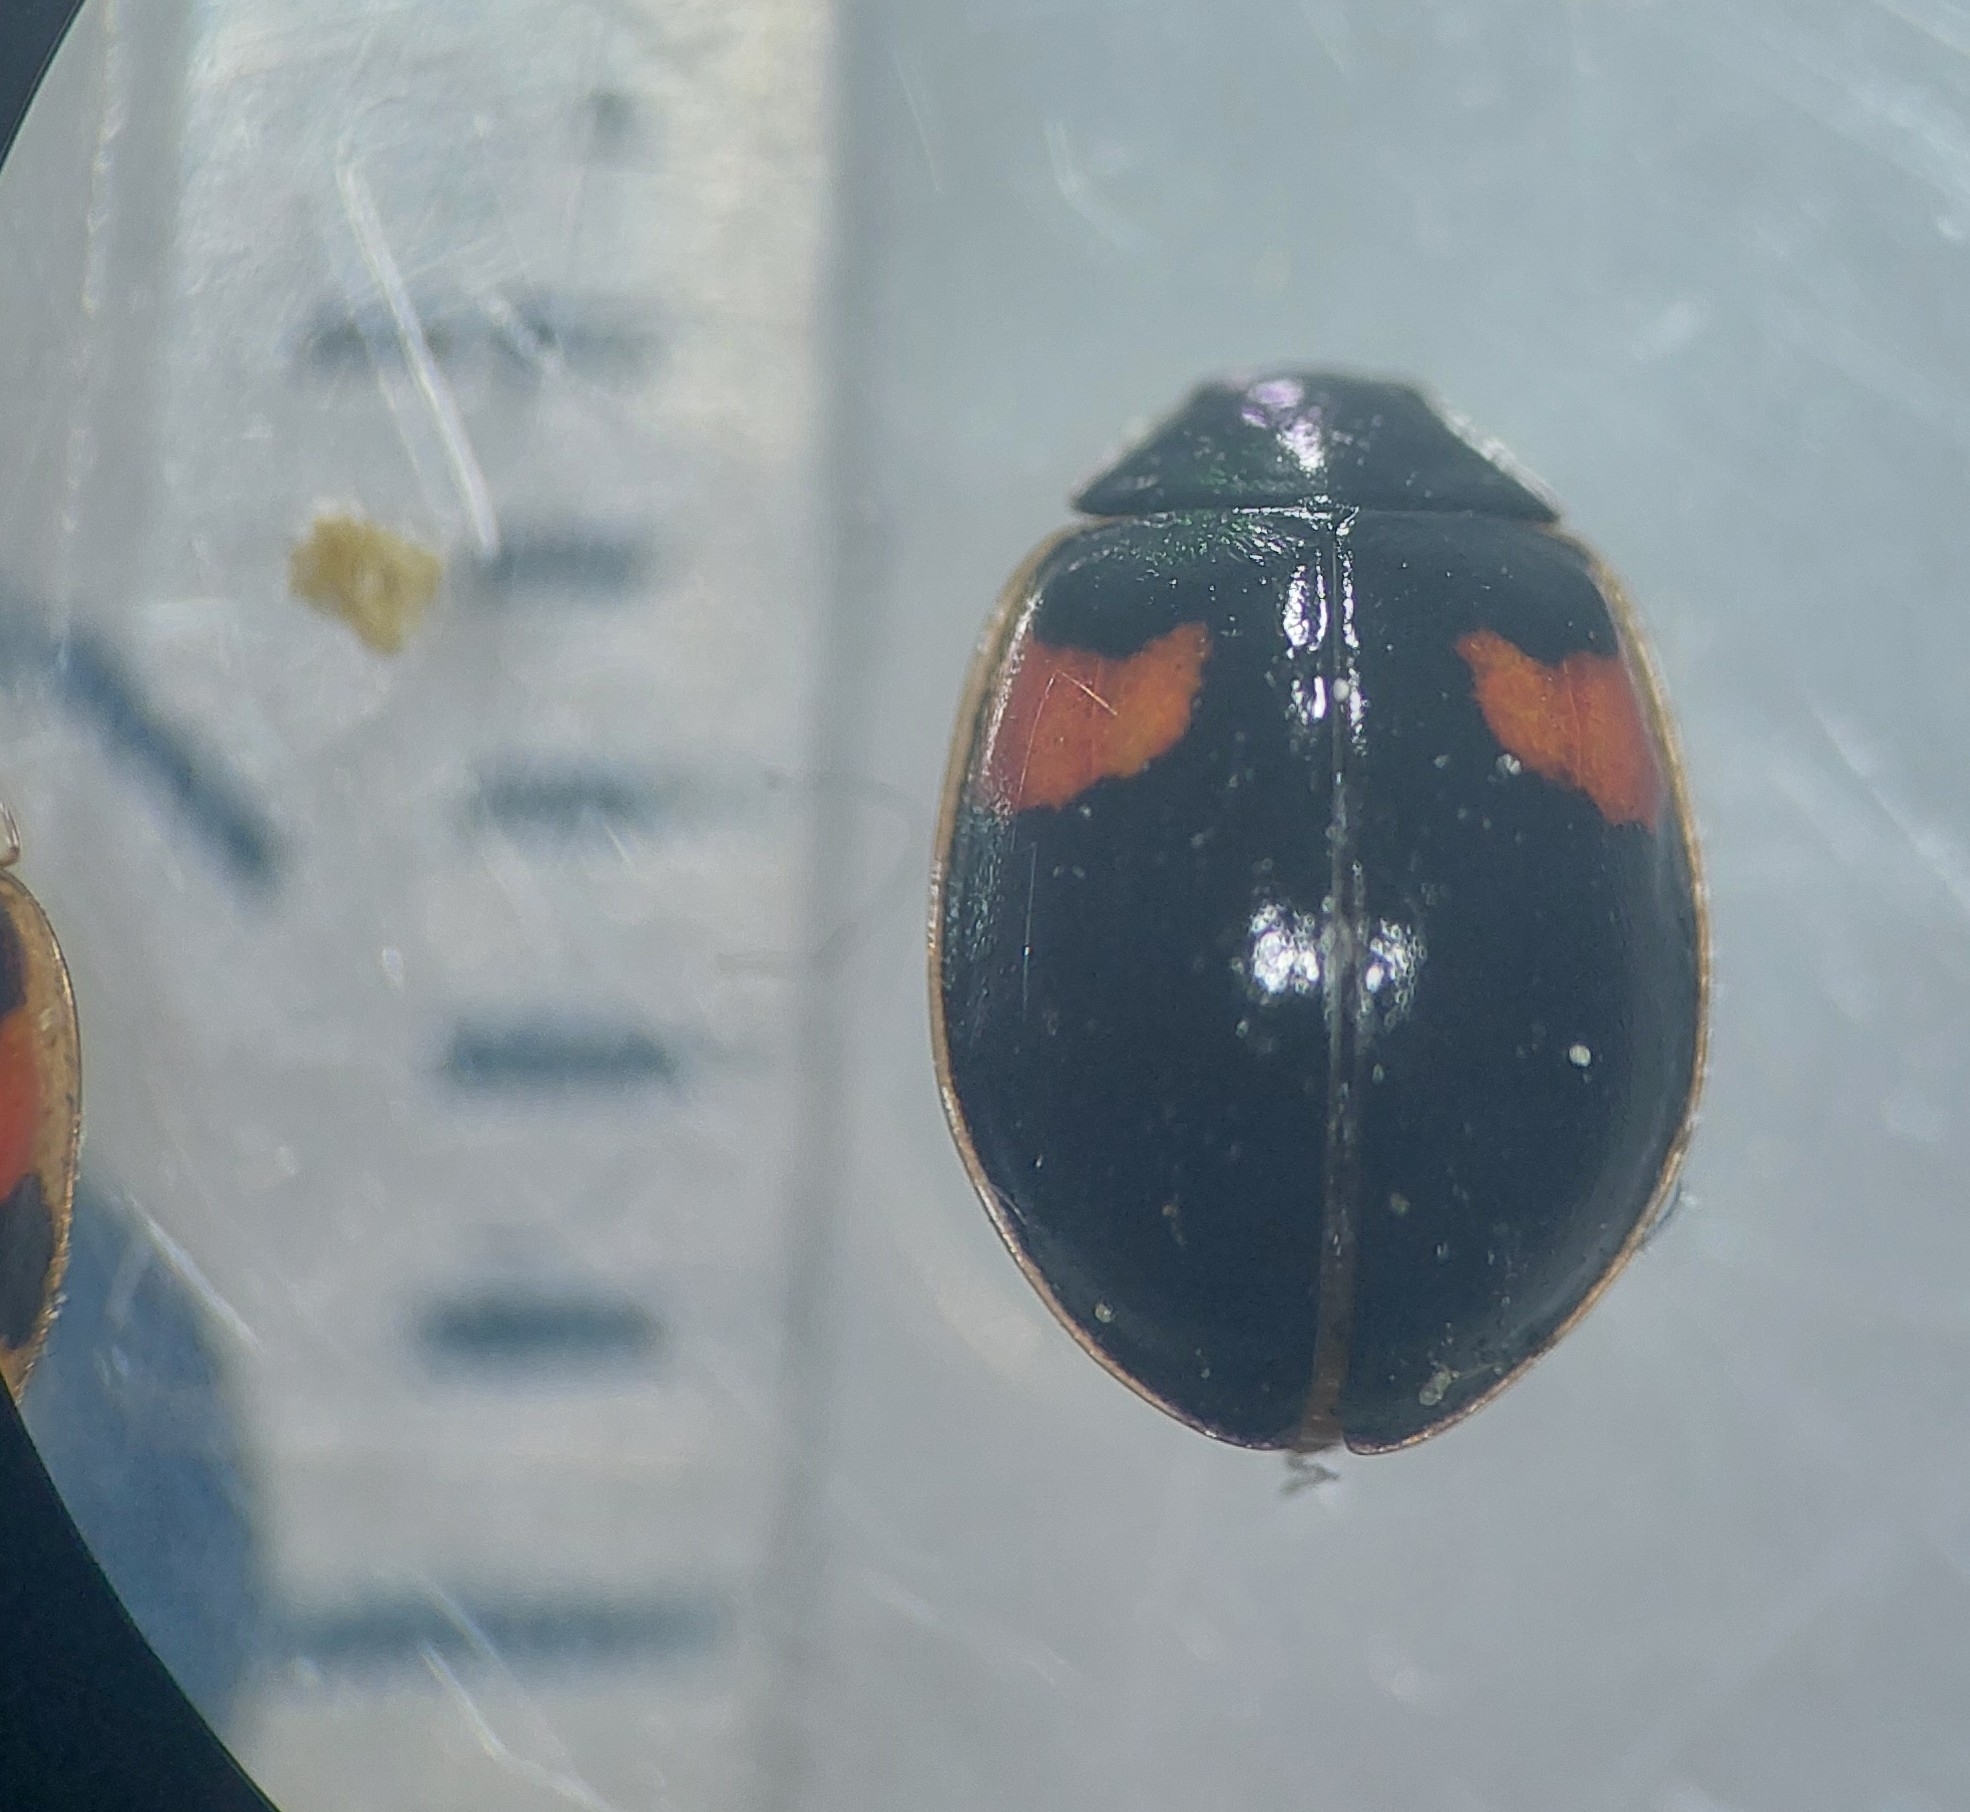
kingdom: Animalia
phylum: Arthropoda
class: Insecta
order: Coleoptera
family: Coccinellidae
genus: Adalia
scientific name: Adalia decempunctata
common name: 10-spot ladybird
